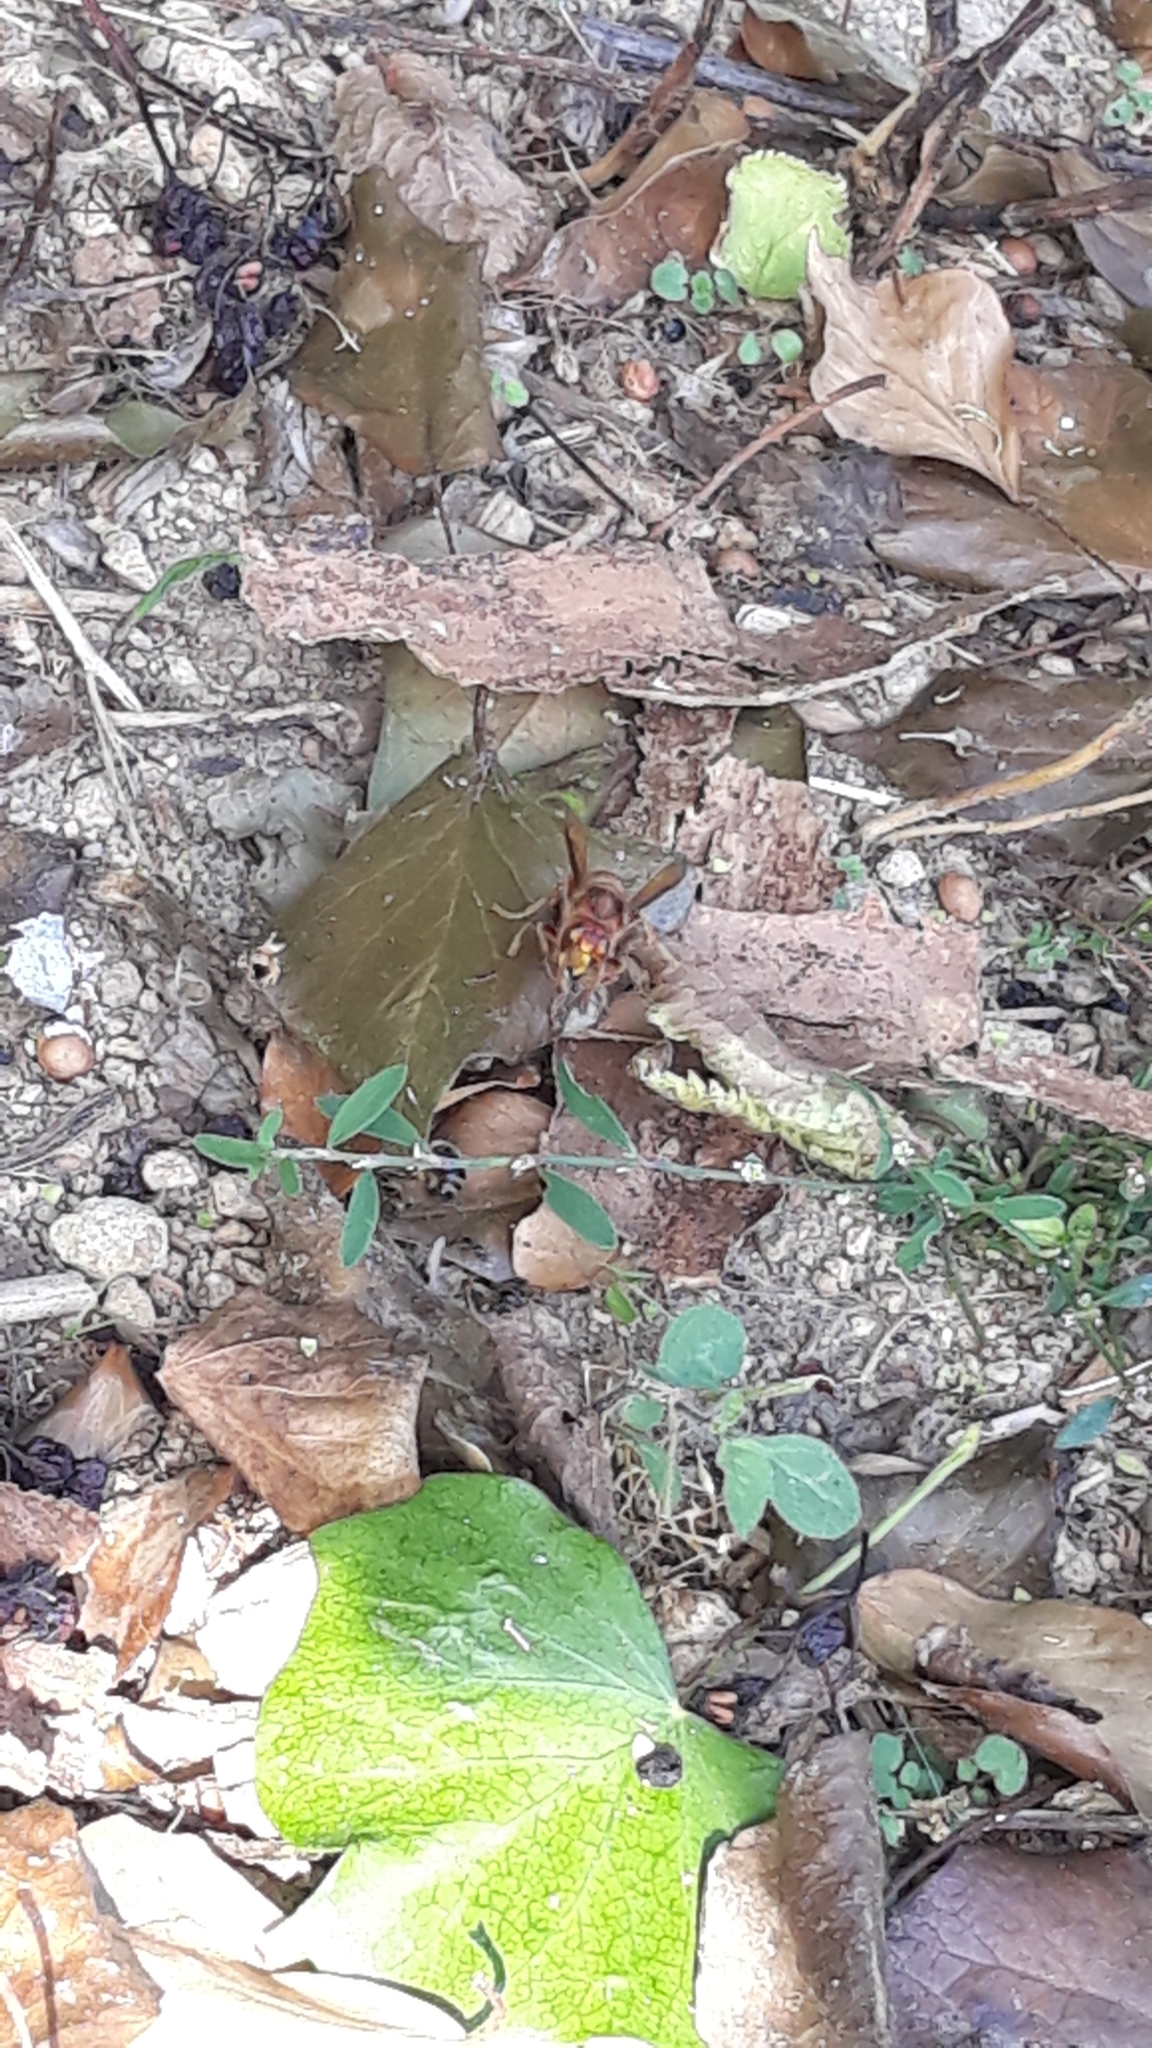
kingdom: Animalia
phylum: Arthropoda
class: Insecta
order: Hymenoptera
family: Vespidae
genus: Vespa
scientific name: Vespa crabro
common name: Hornet
